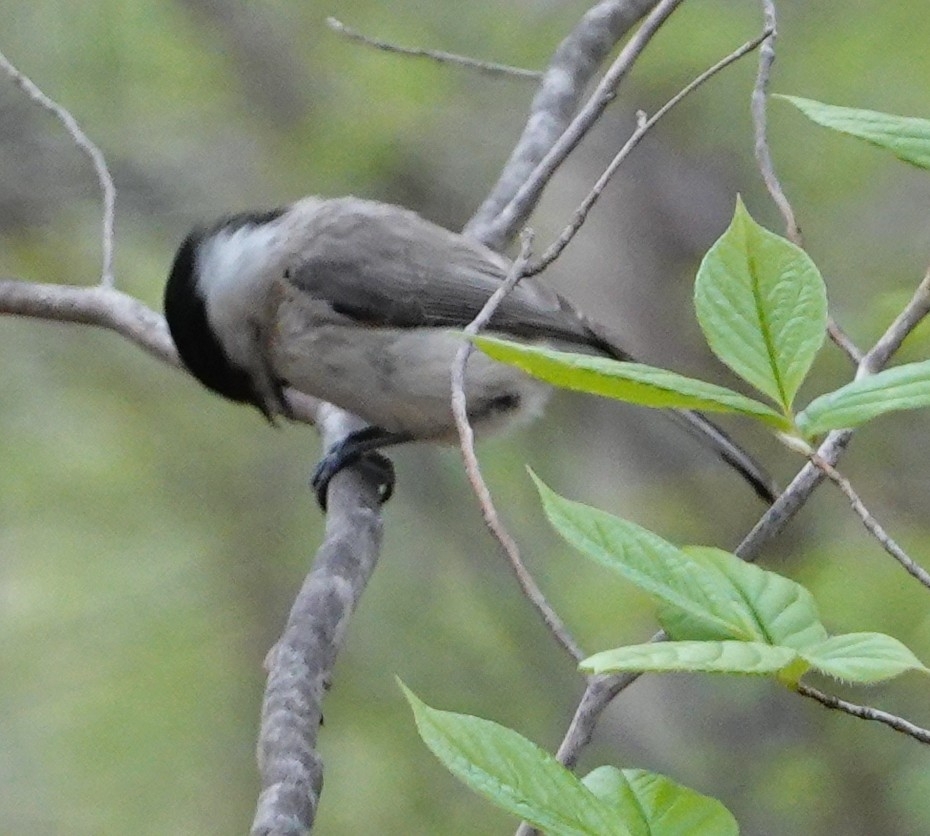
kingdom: Animalia
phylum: Chordata
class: Aves
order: Passeriformes
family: Paridae
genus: Poecile
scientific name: Poecile palustris
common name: Marsh tit
